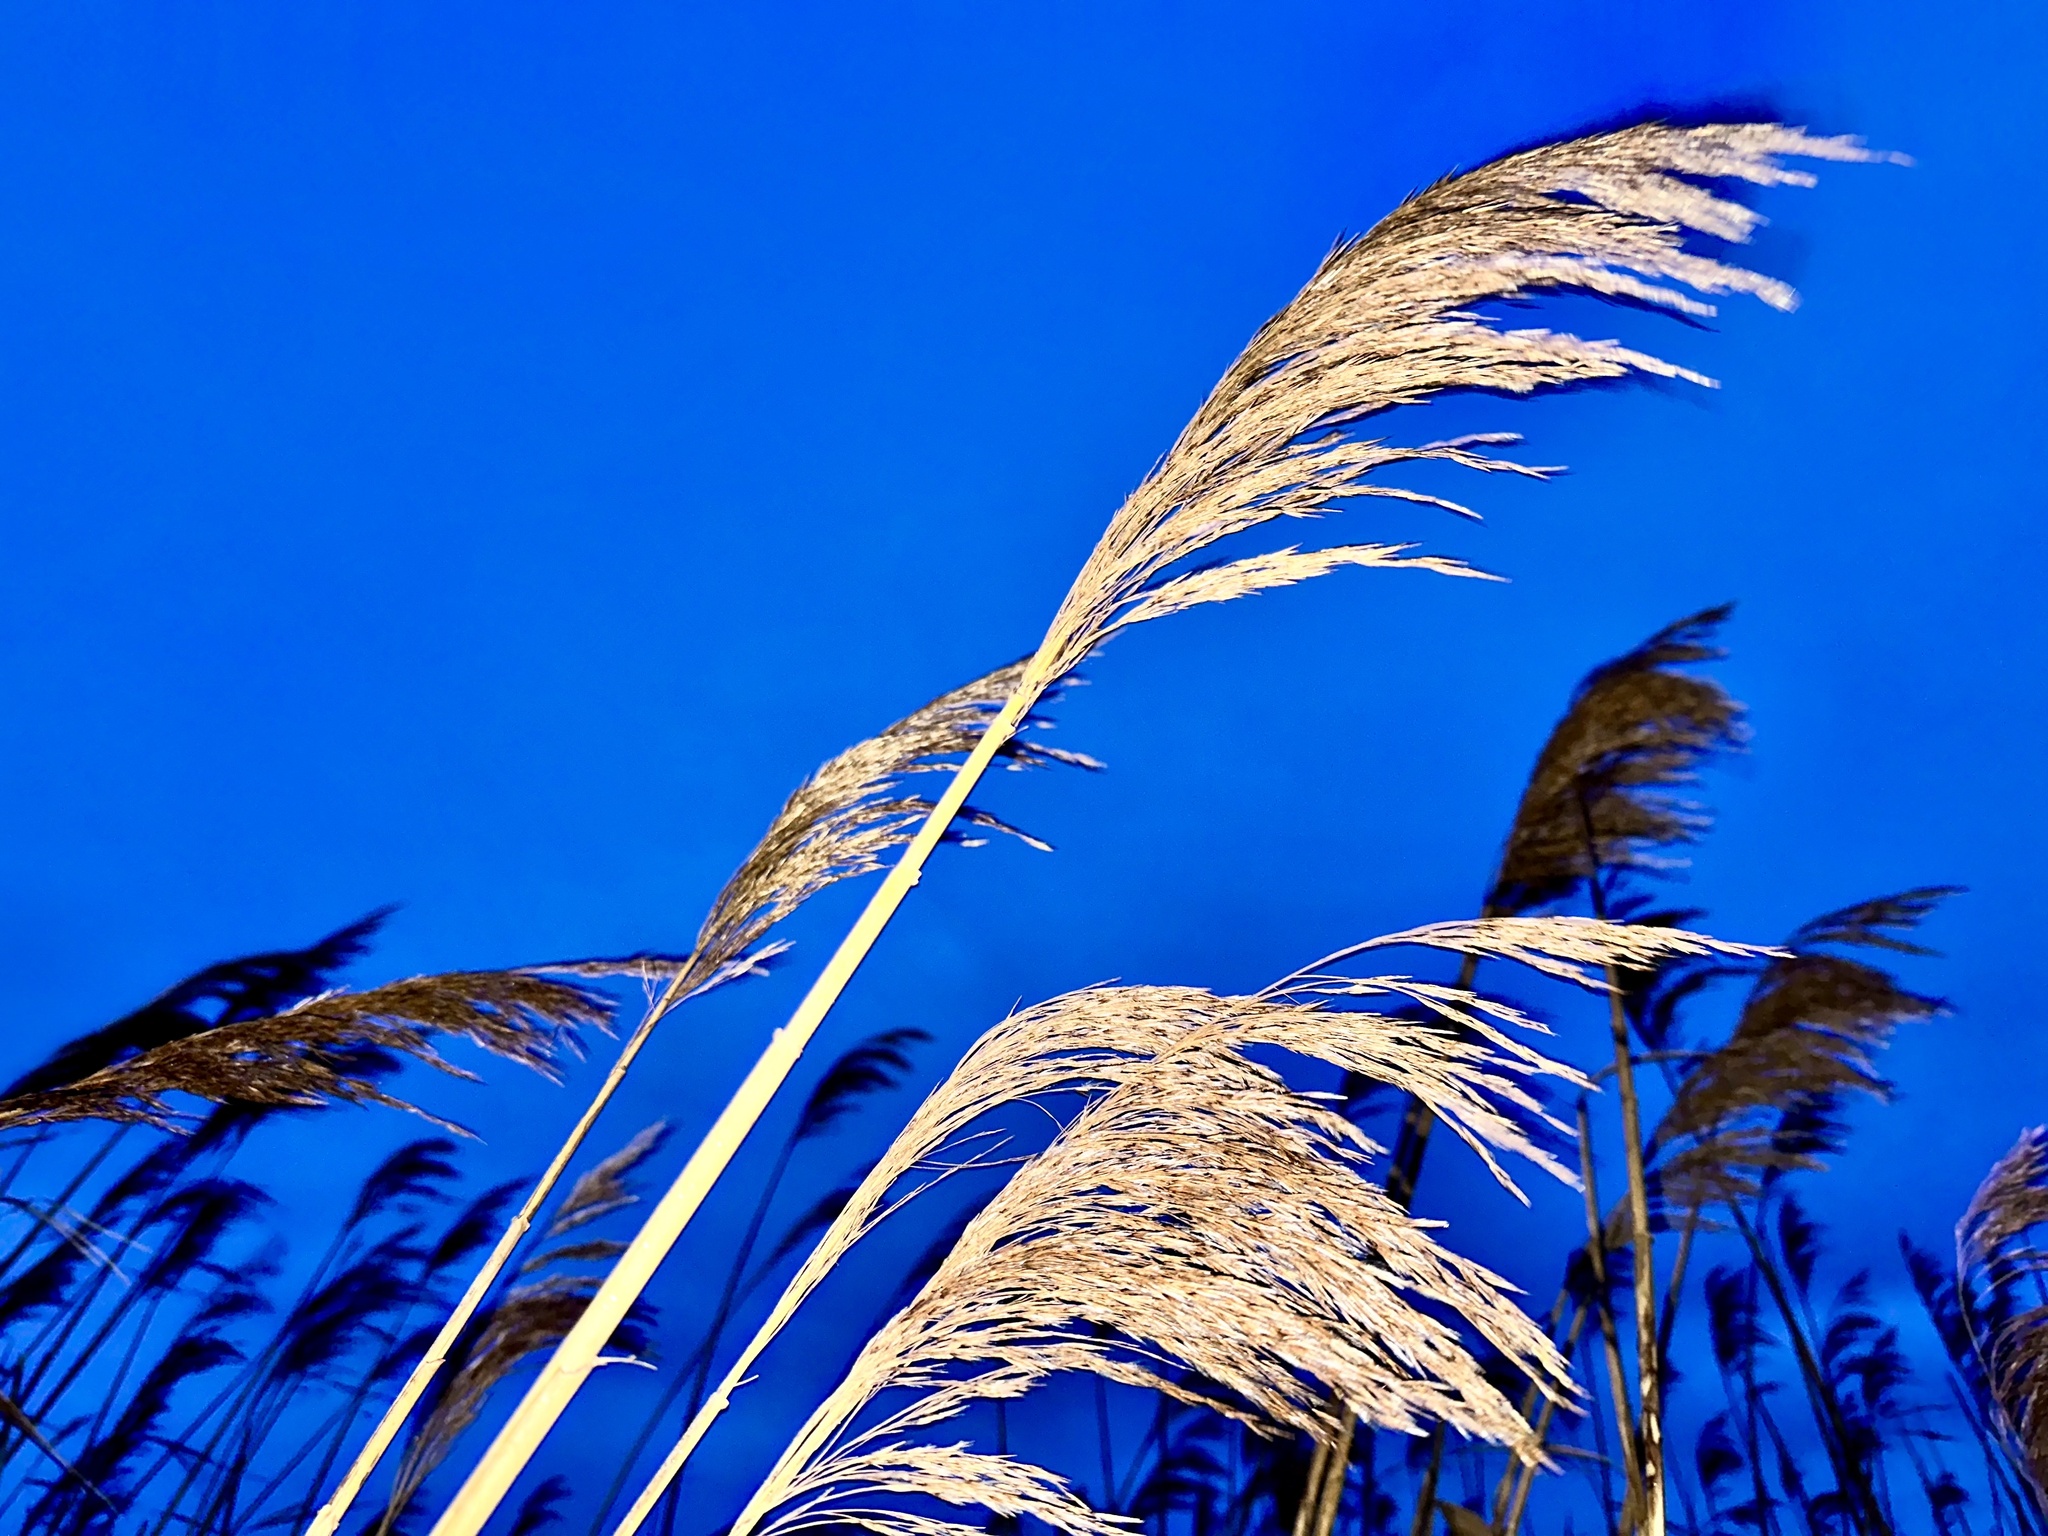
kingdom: Plantae
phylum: Tracheophyta
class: Liliopsida
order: Poales
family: Poaceae
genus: Phragmites
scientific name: Phragmites australis
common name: Common reed
